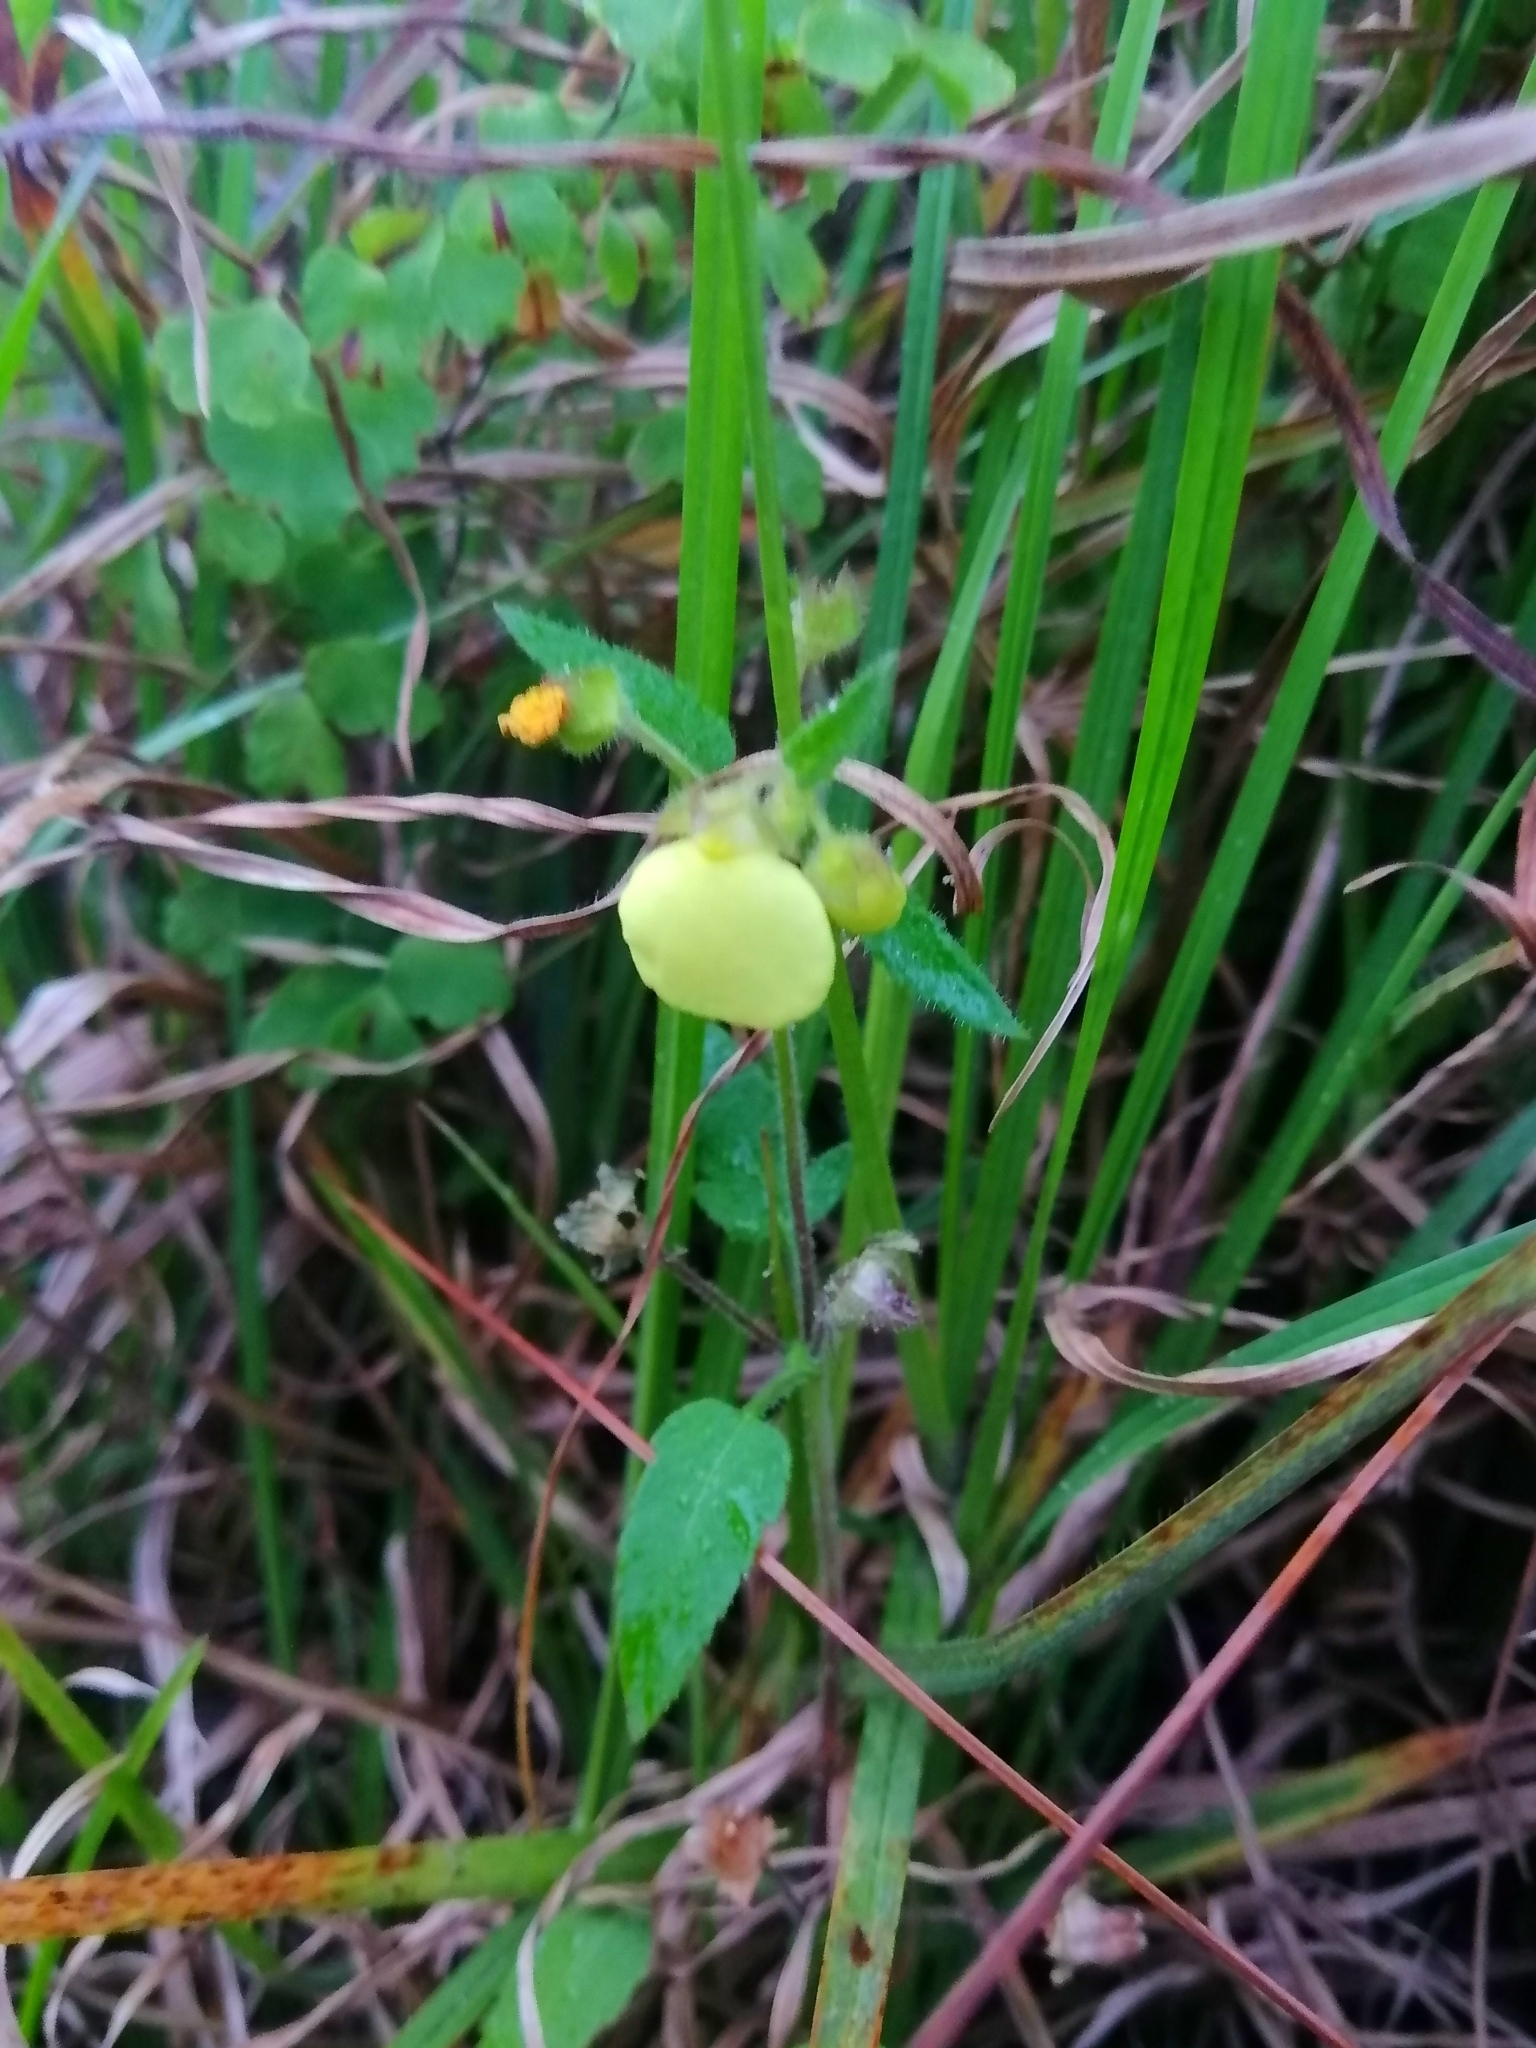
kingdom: Plantae
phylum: Tracheophyta
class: Magnoliopsida
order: Lamiales
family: Calceolariaceae
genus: Calceolaria
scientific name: Calceolaria tripartita
